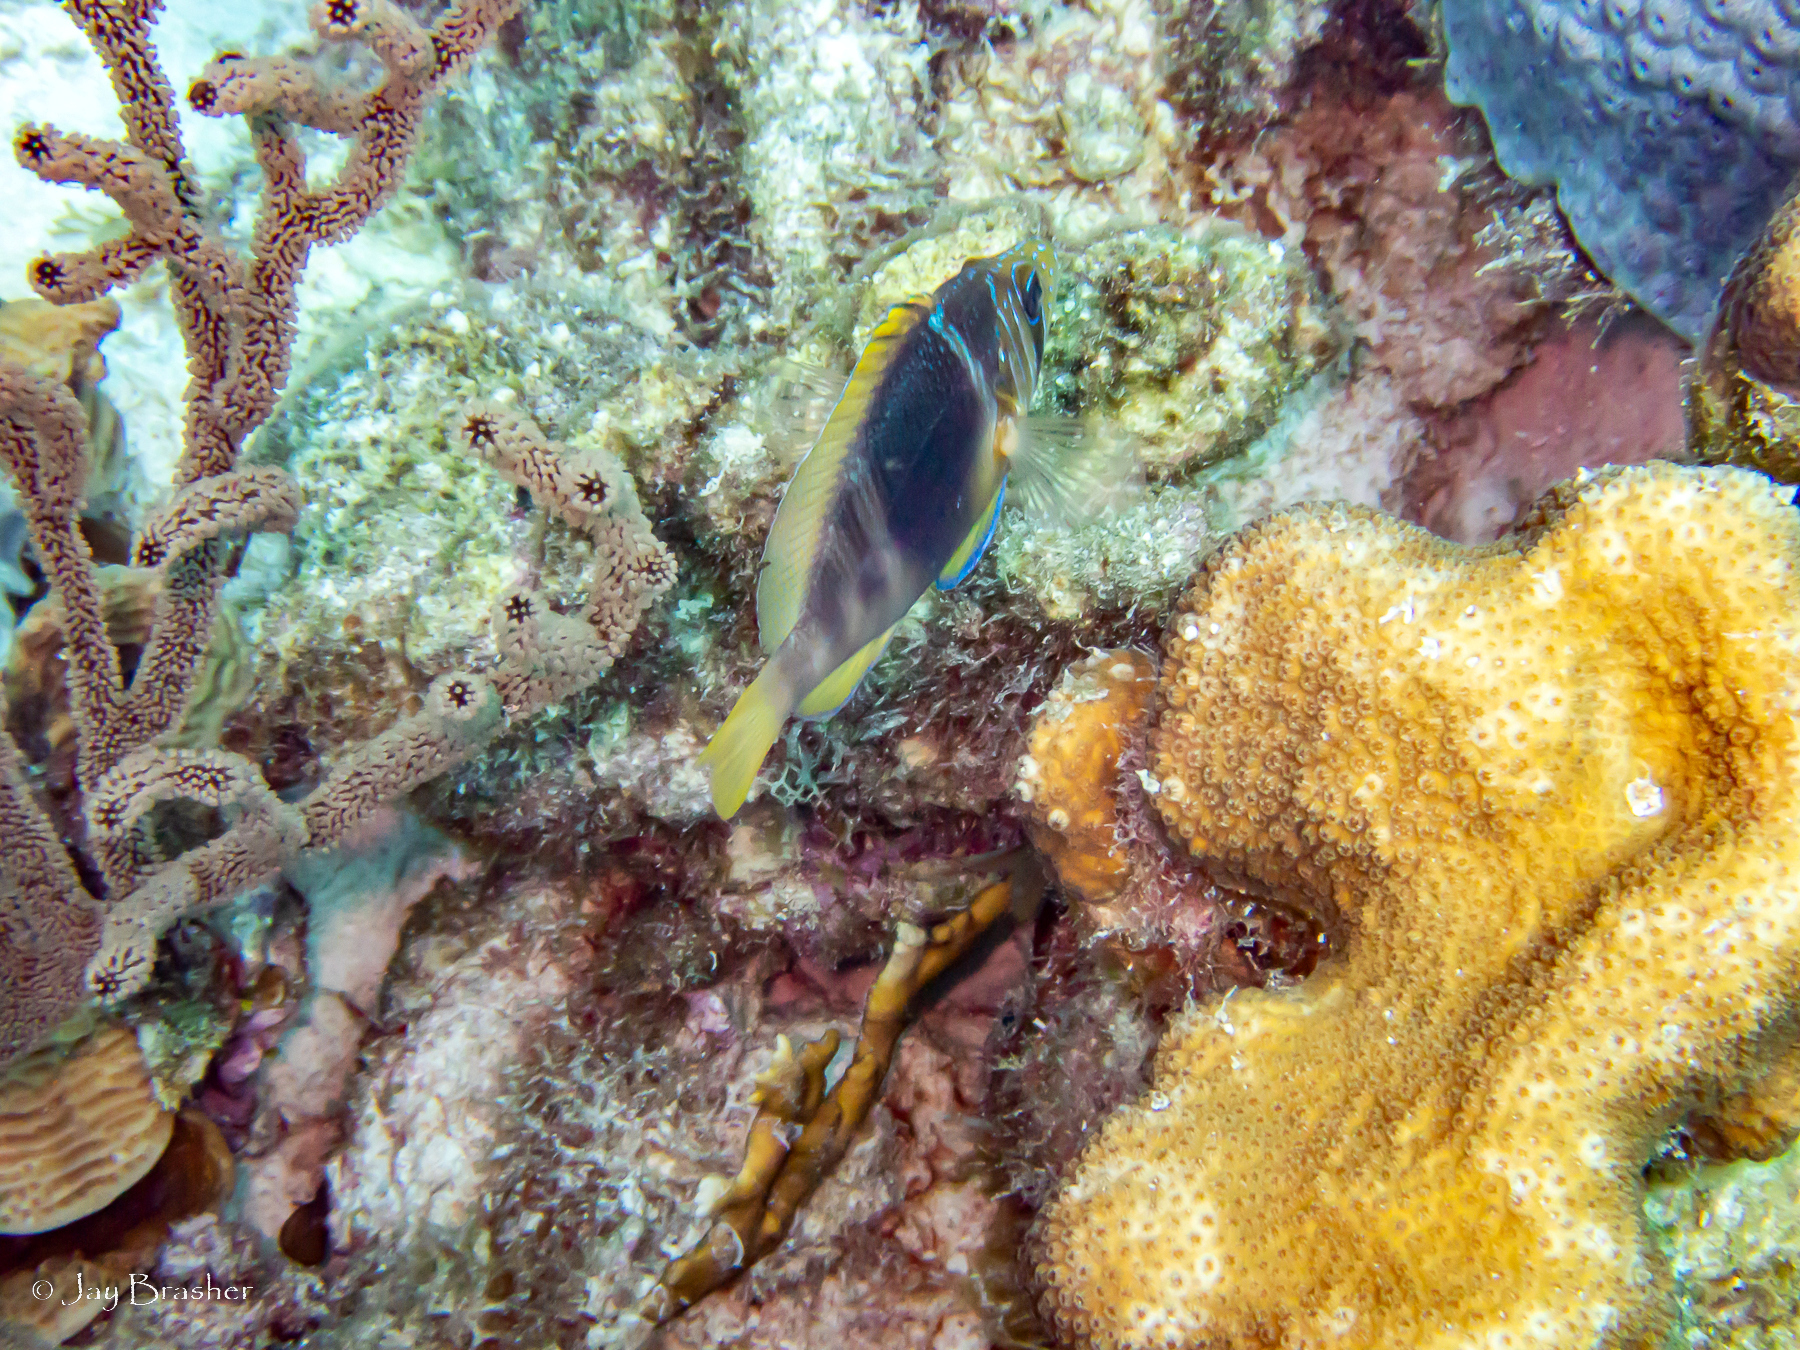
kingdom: Animalia
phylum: Chordata
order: Perciformes
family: Serranidae
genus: Hypoplectrus
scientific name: Hypoplectrus puella
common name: Barred hamlet
